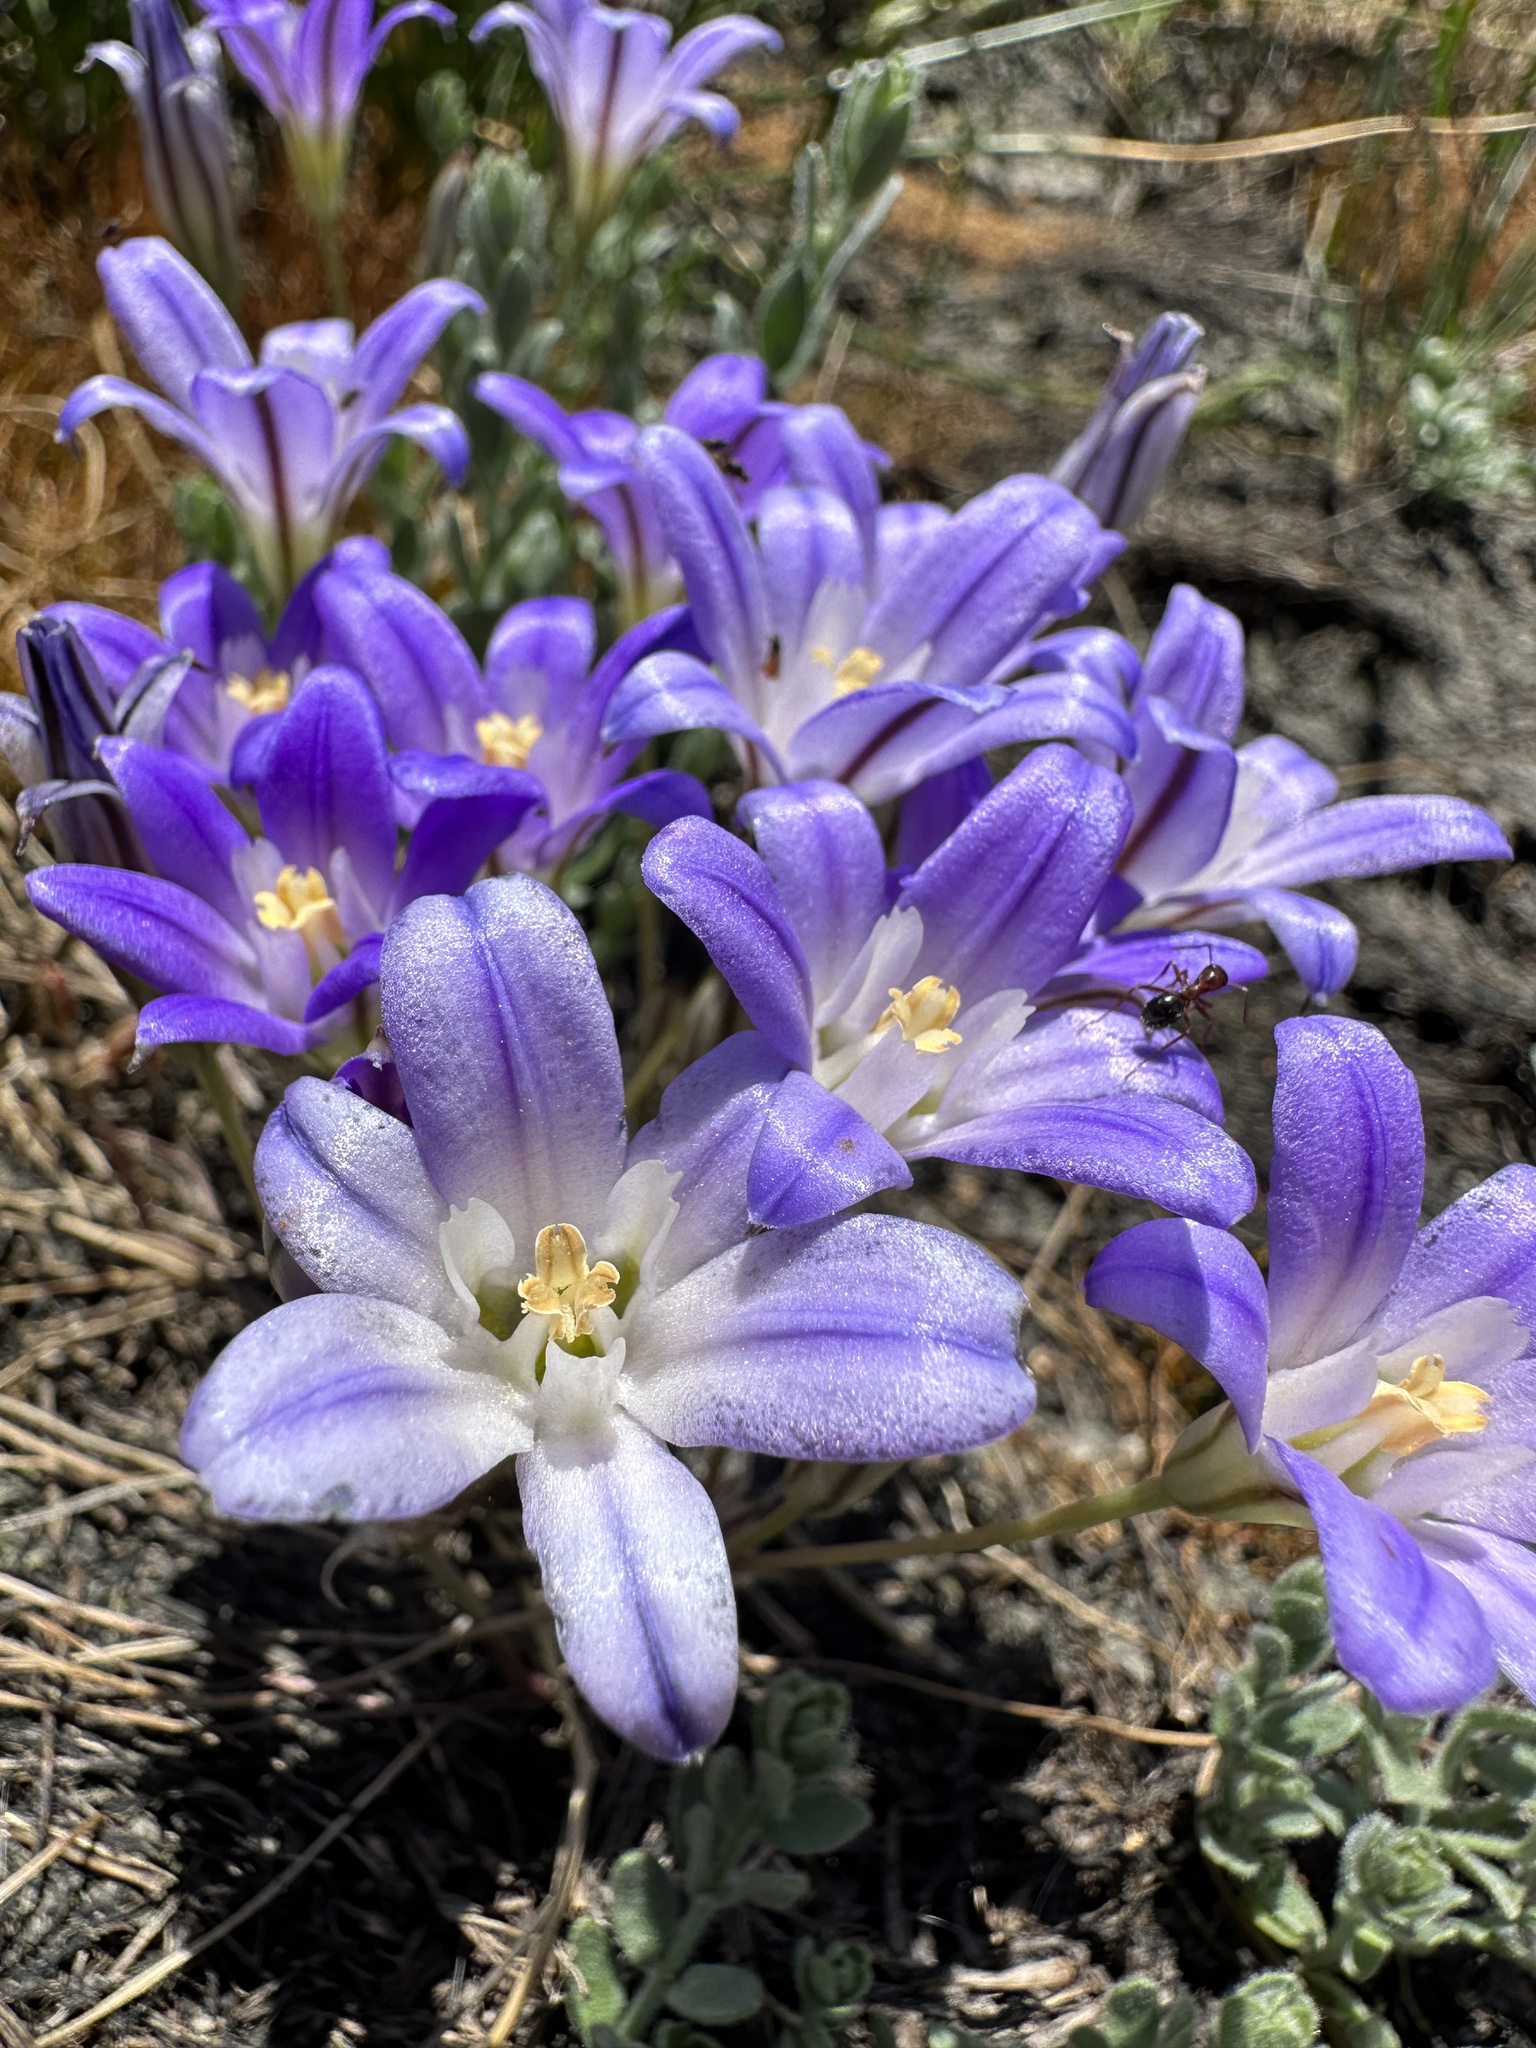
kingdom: Plantae
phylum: Tracheophyta
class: Liliopsida
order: Asparagales
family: Asparagaceae
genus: Brodiaea
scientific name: Brodiaea terrestris
